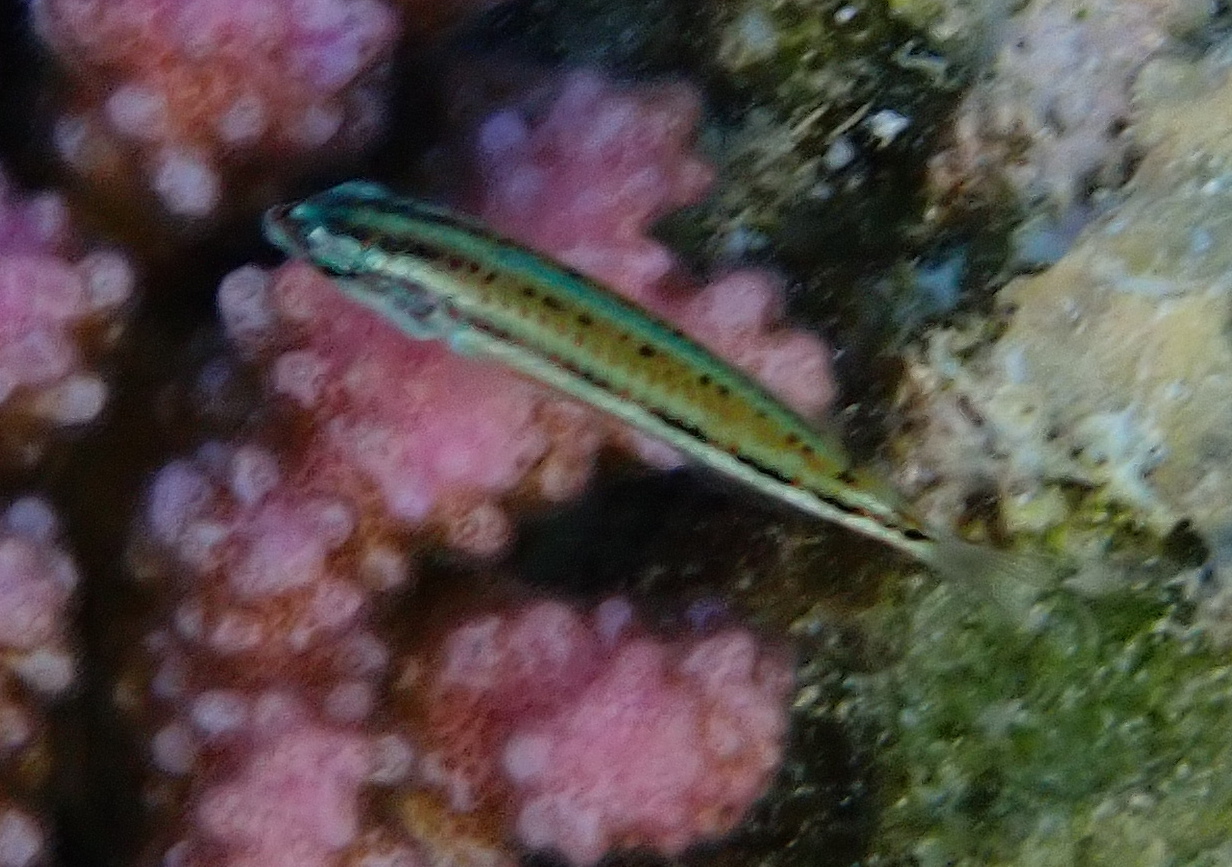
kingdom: Animalia
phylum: Chordata
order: Perciformes
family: Labridae
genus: Thalassoma
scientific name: Thalassoma rueppellii
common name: Klunzinger's wrasse
